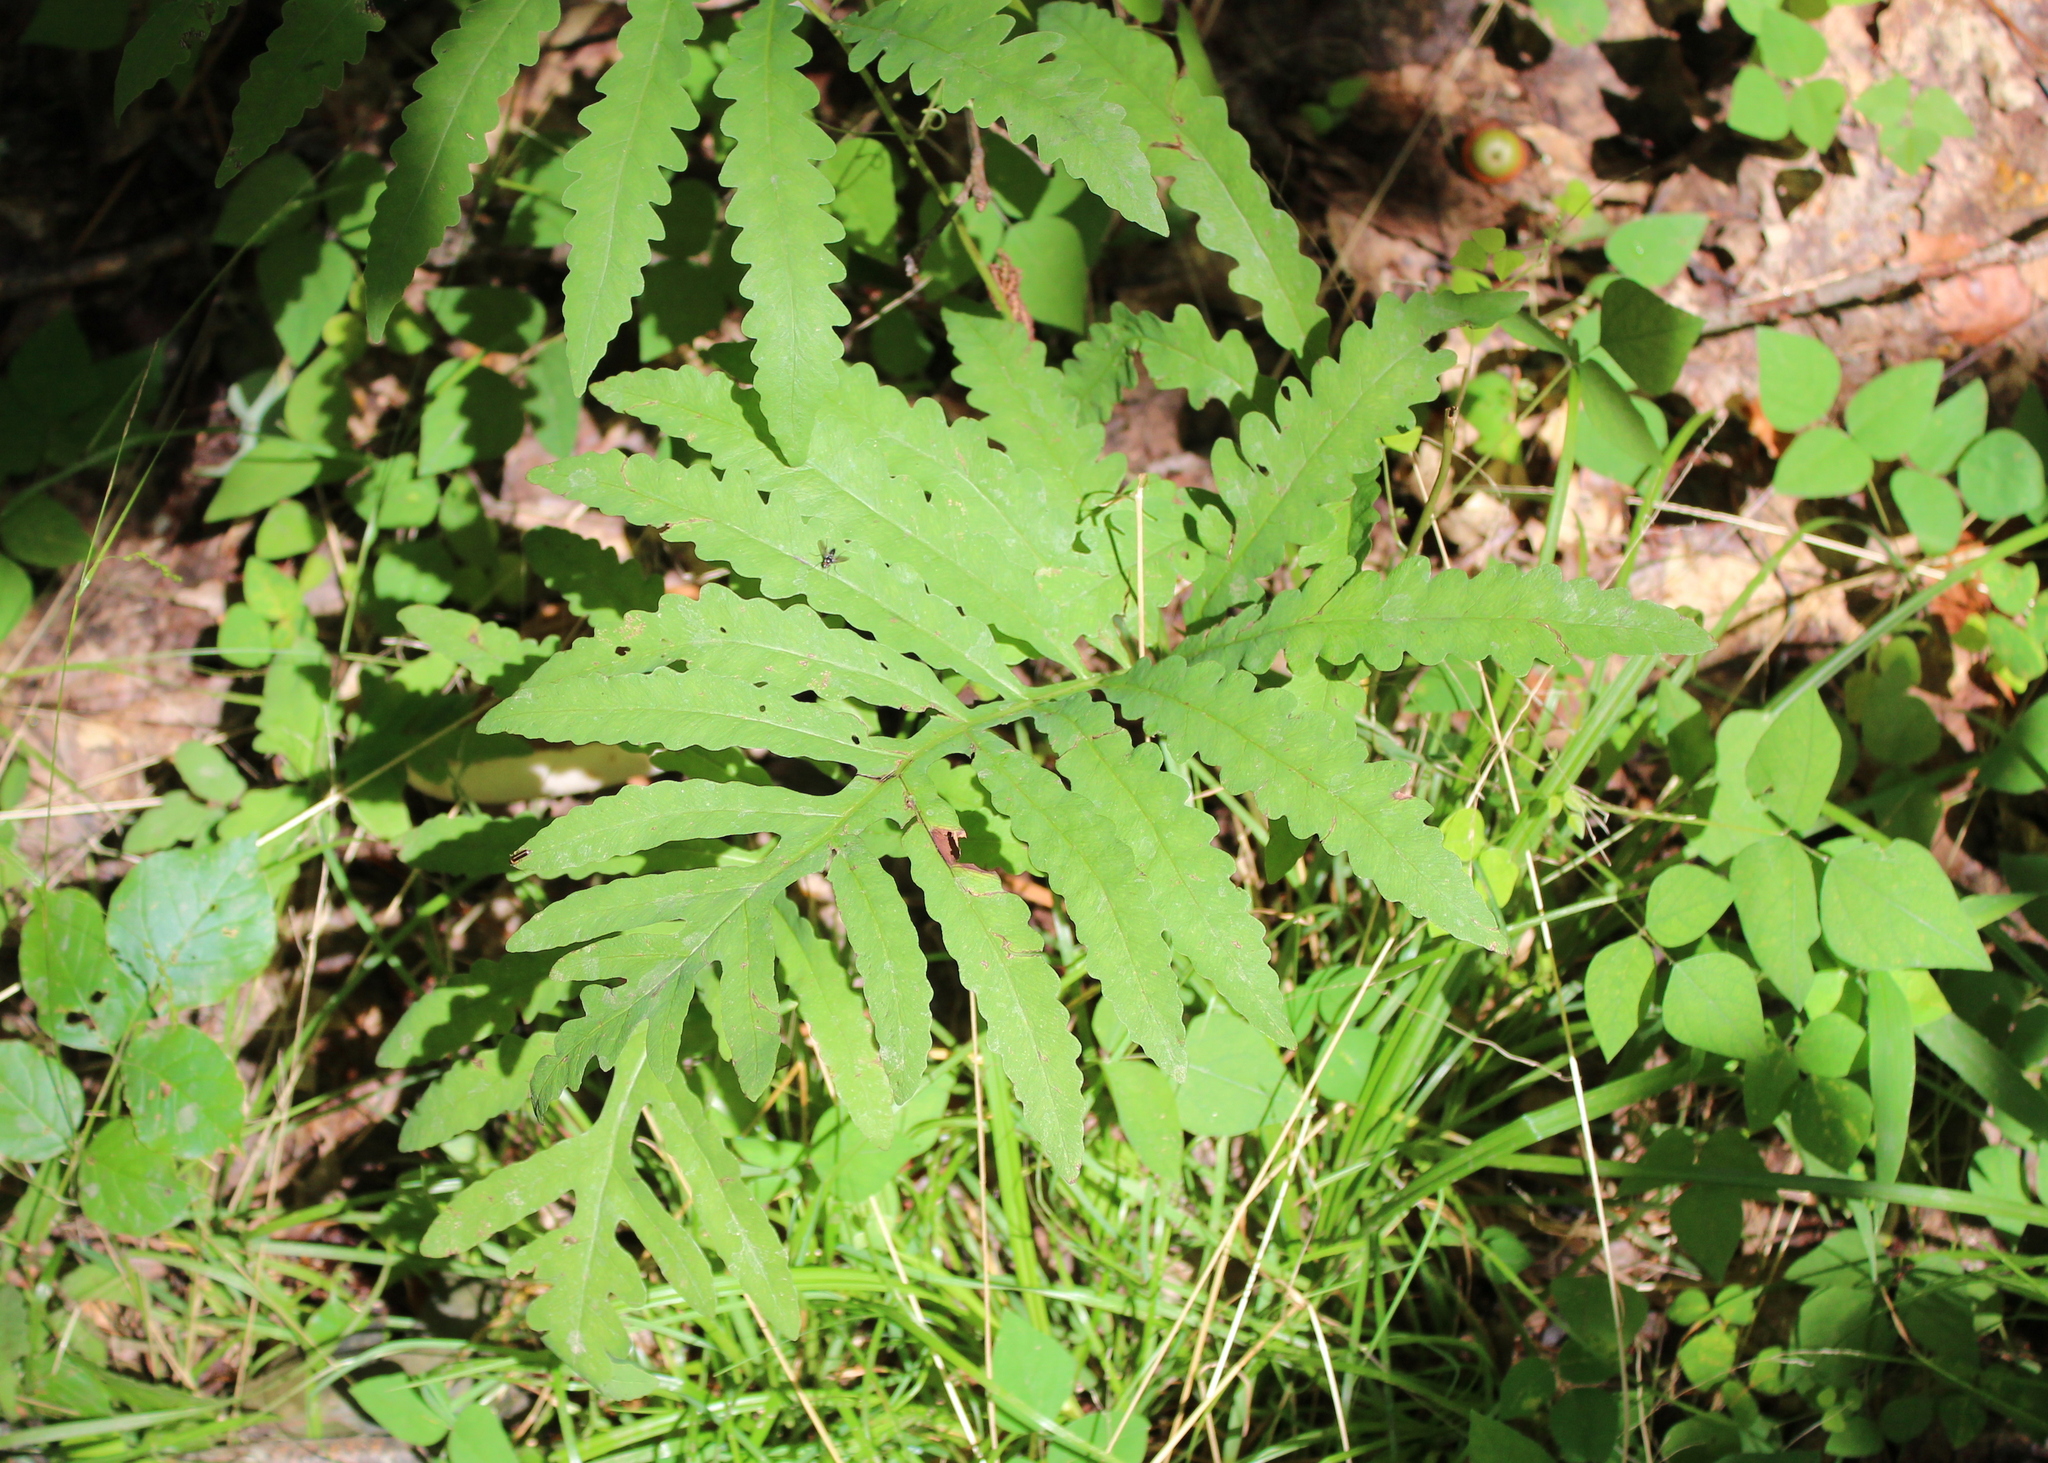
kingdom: Plantae
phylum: Tracheophyta
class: Polypodiopsida
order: Polypodiales
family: Onocleaceae
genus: Onoclea
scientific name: Onoclea sensibilis
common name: Sensitive fern
